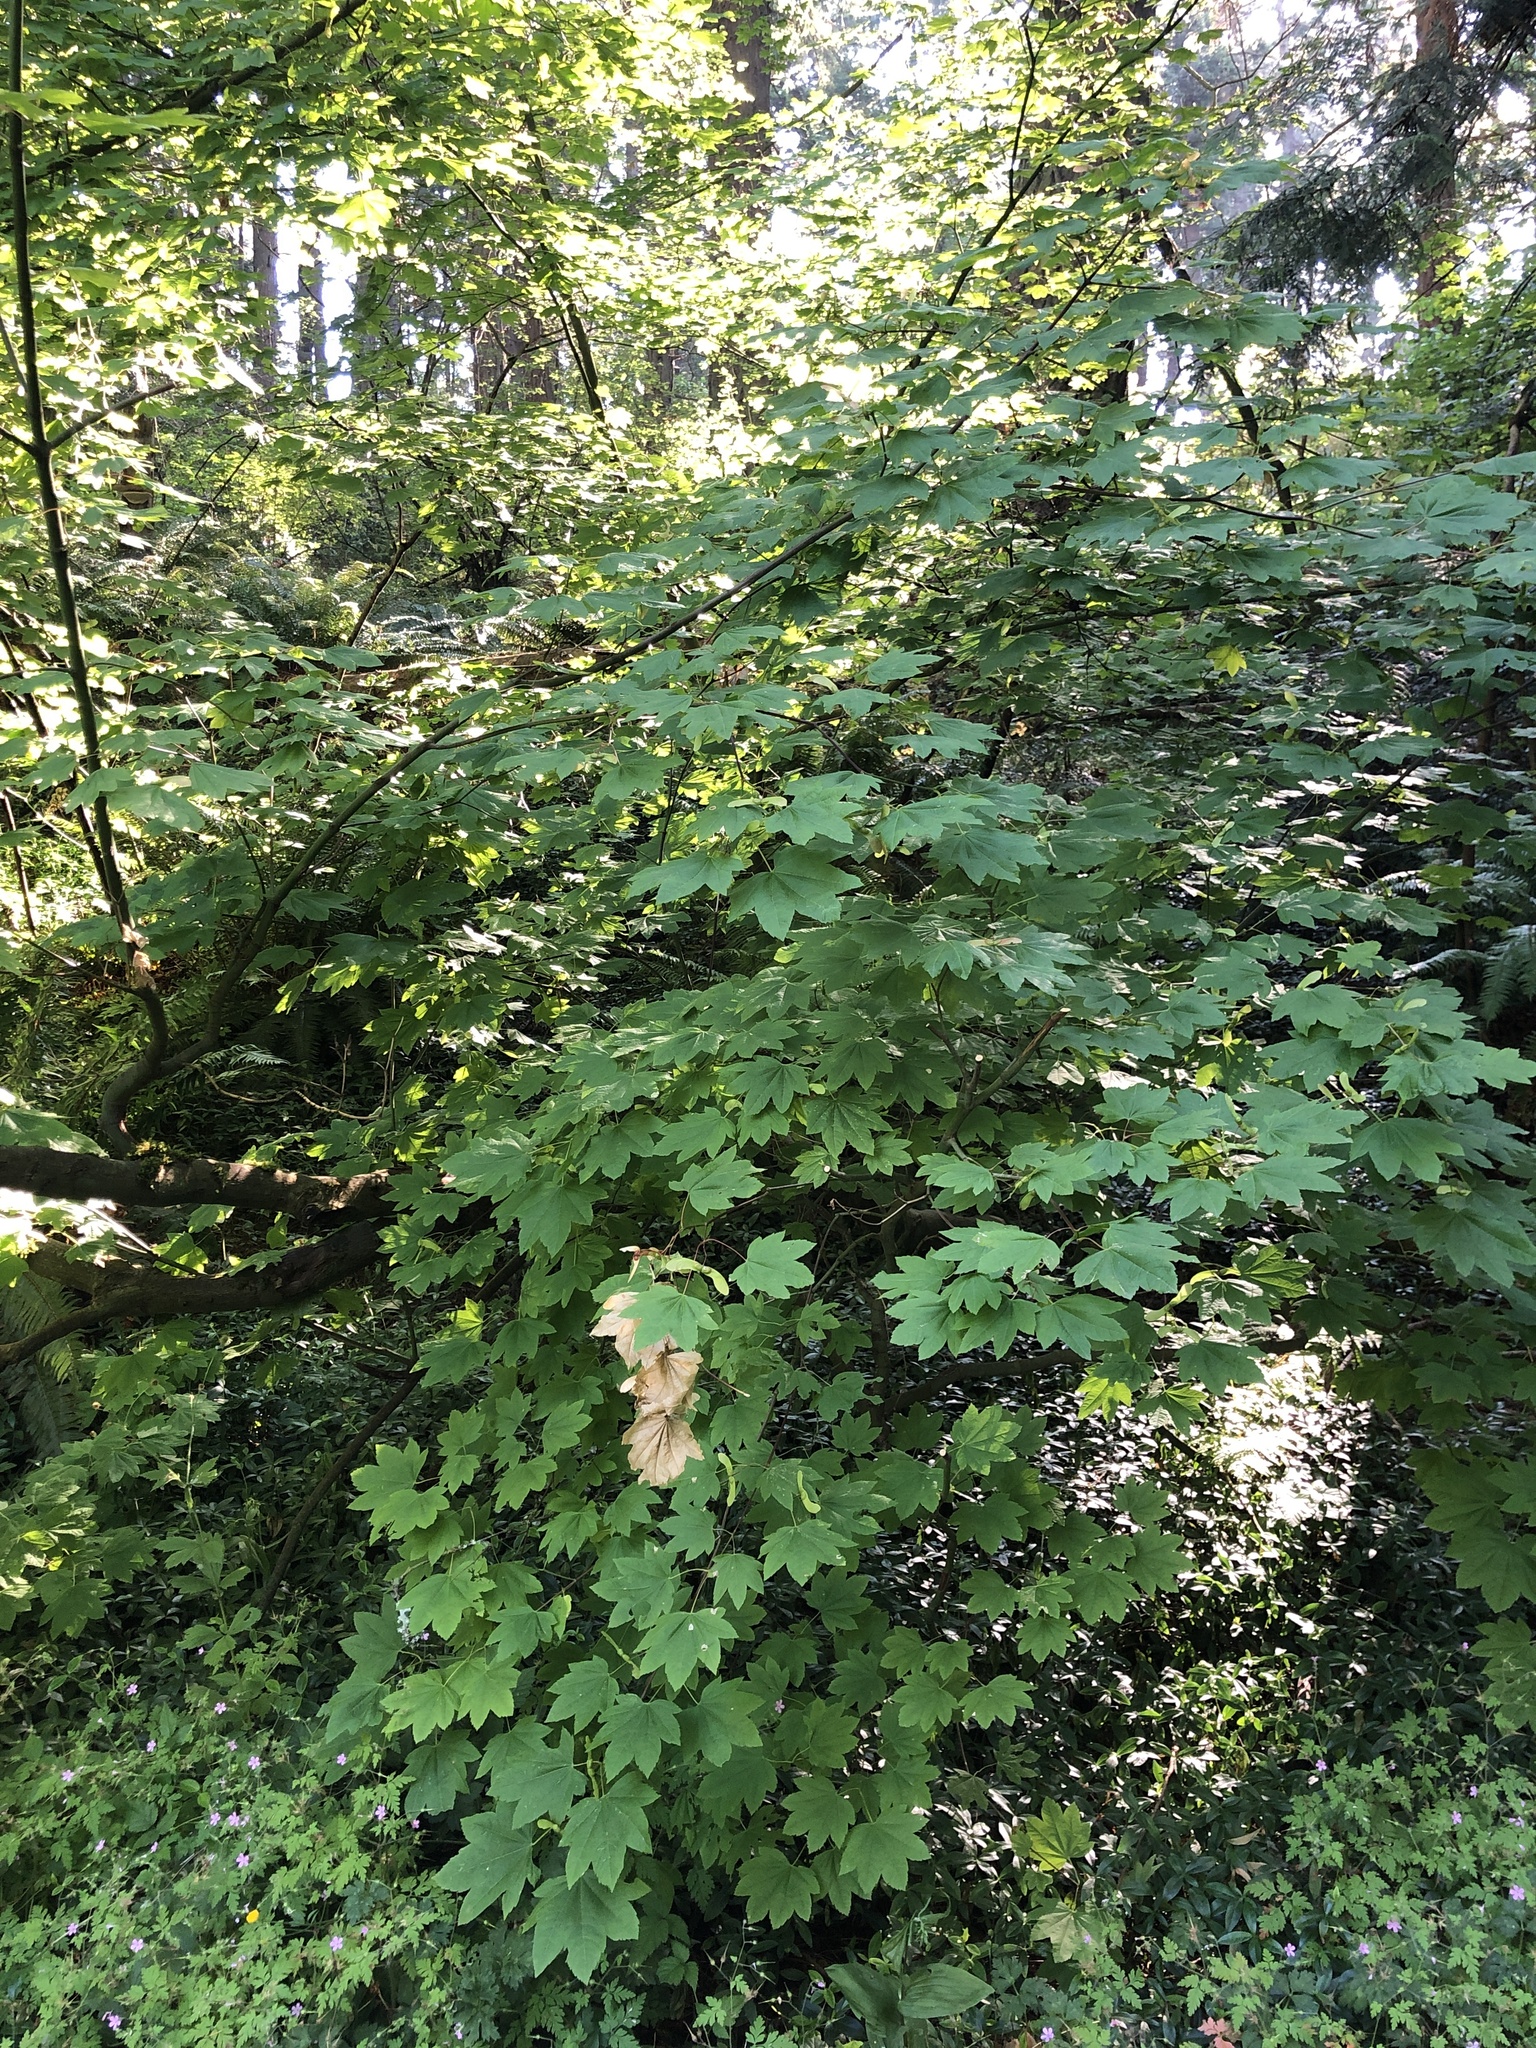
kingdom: Plantae
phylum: Tracheophyta
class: Magnoliopsida
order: Sapindales
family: Sapindaceae
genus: Acer
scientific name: Acer circinatum
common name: Vine maple
